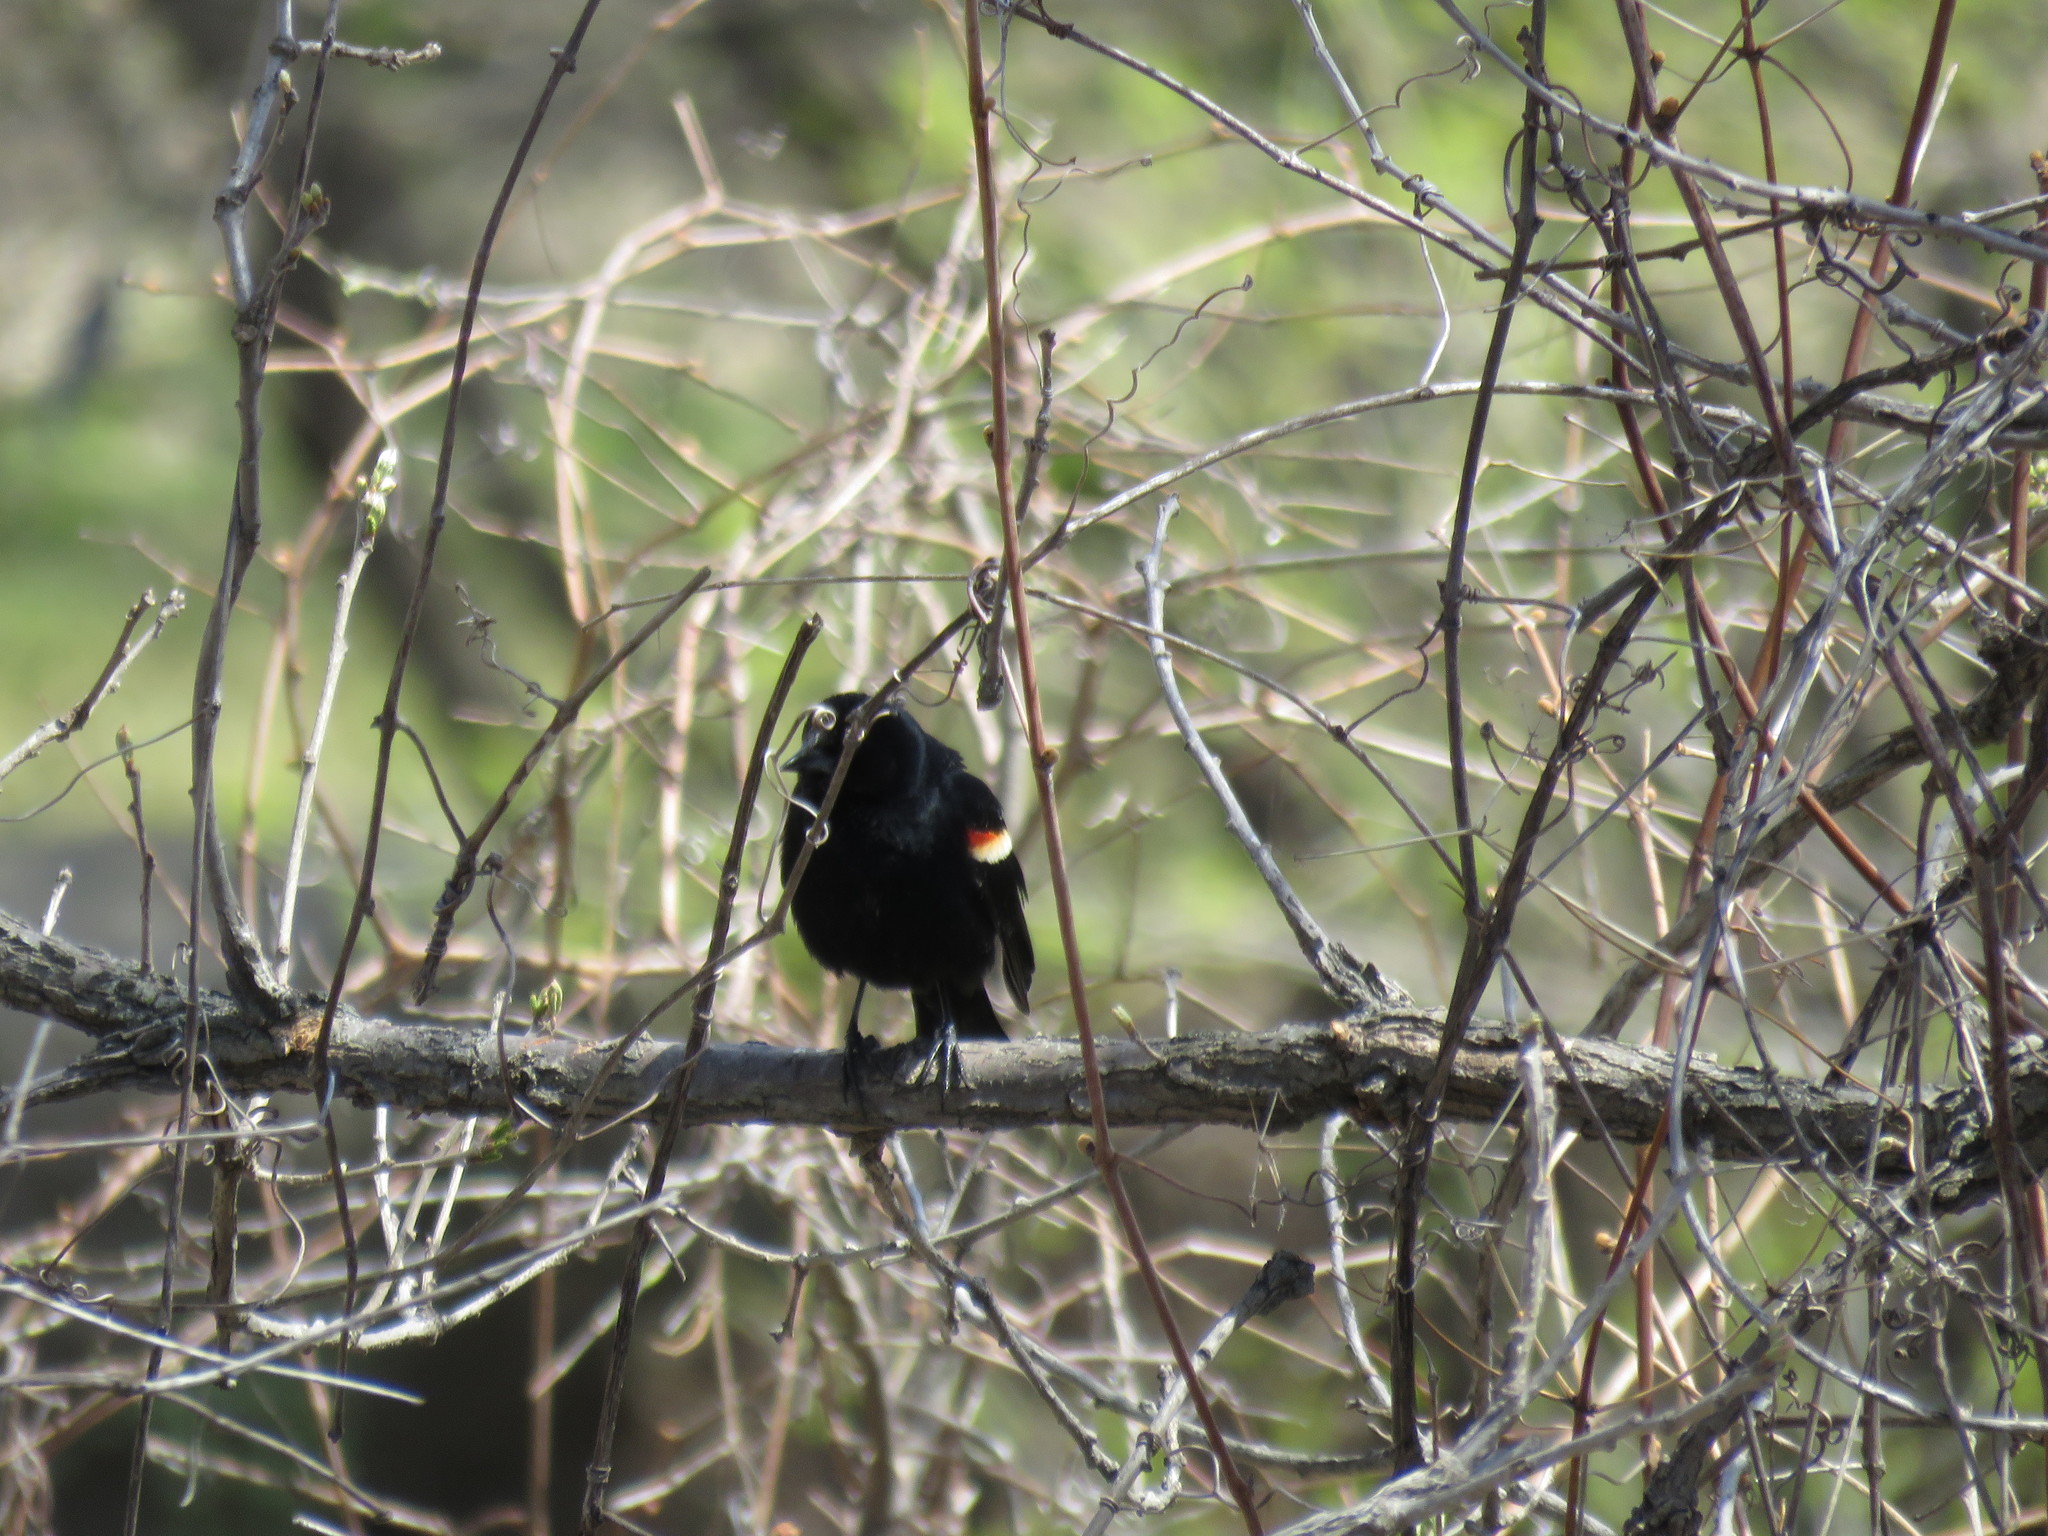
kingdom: Animalia
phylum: Chordata
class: Aves
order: Passeriformes
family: Icteridae
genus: Agelaius
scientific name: Agelaius phoeniceus
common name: Red-winged blackbird
